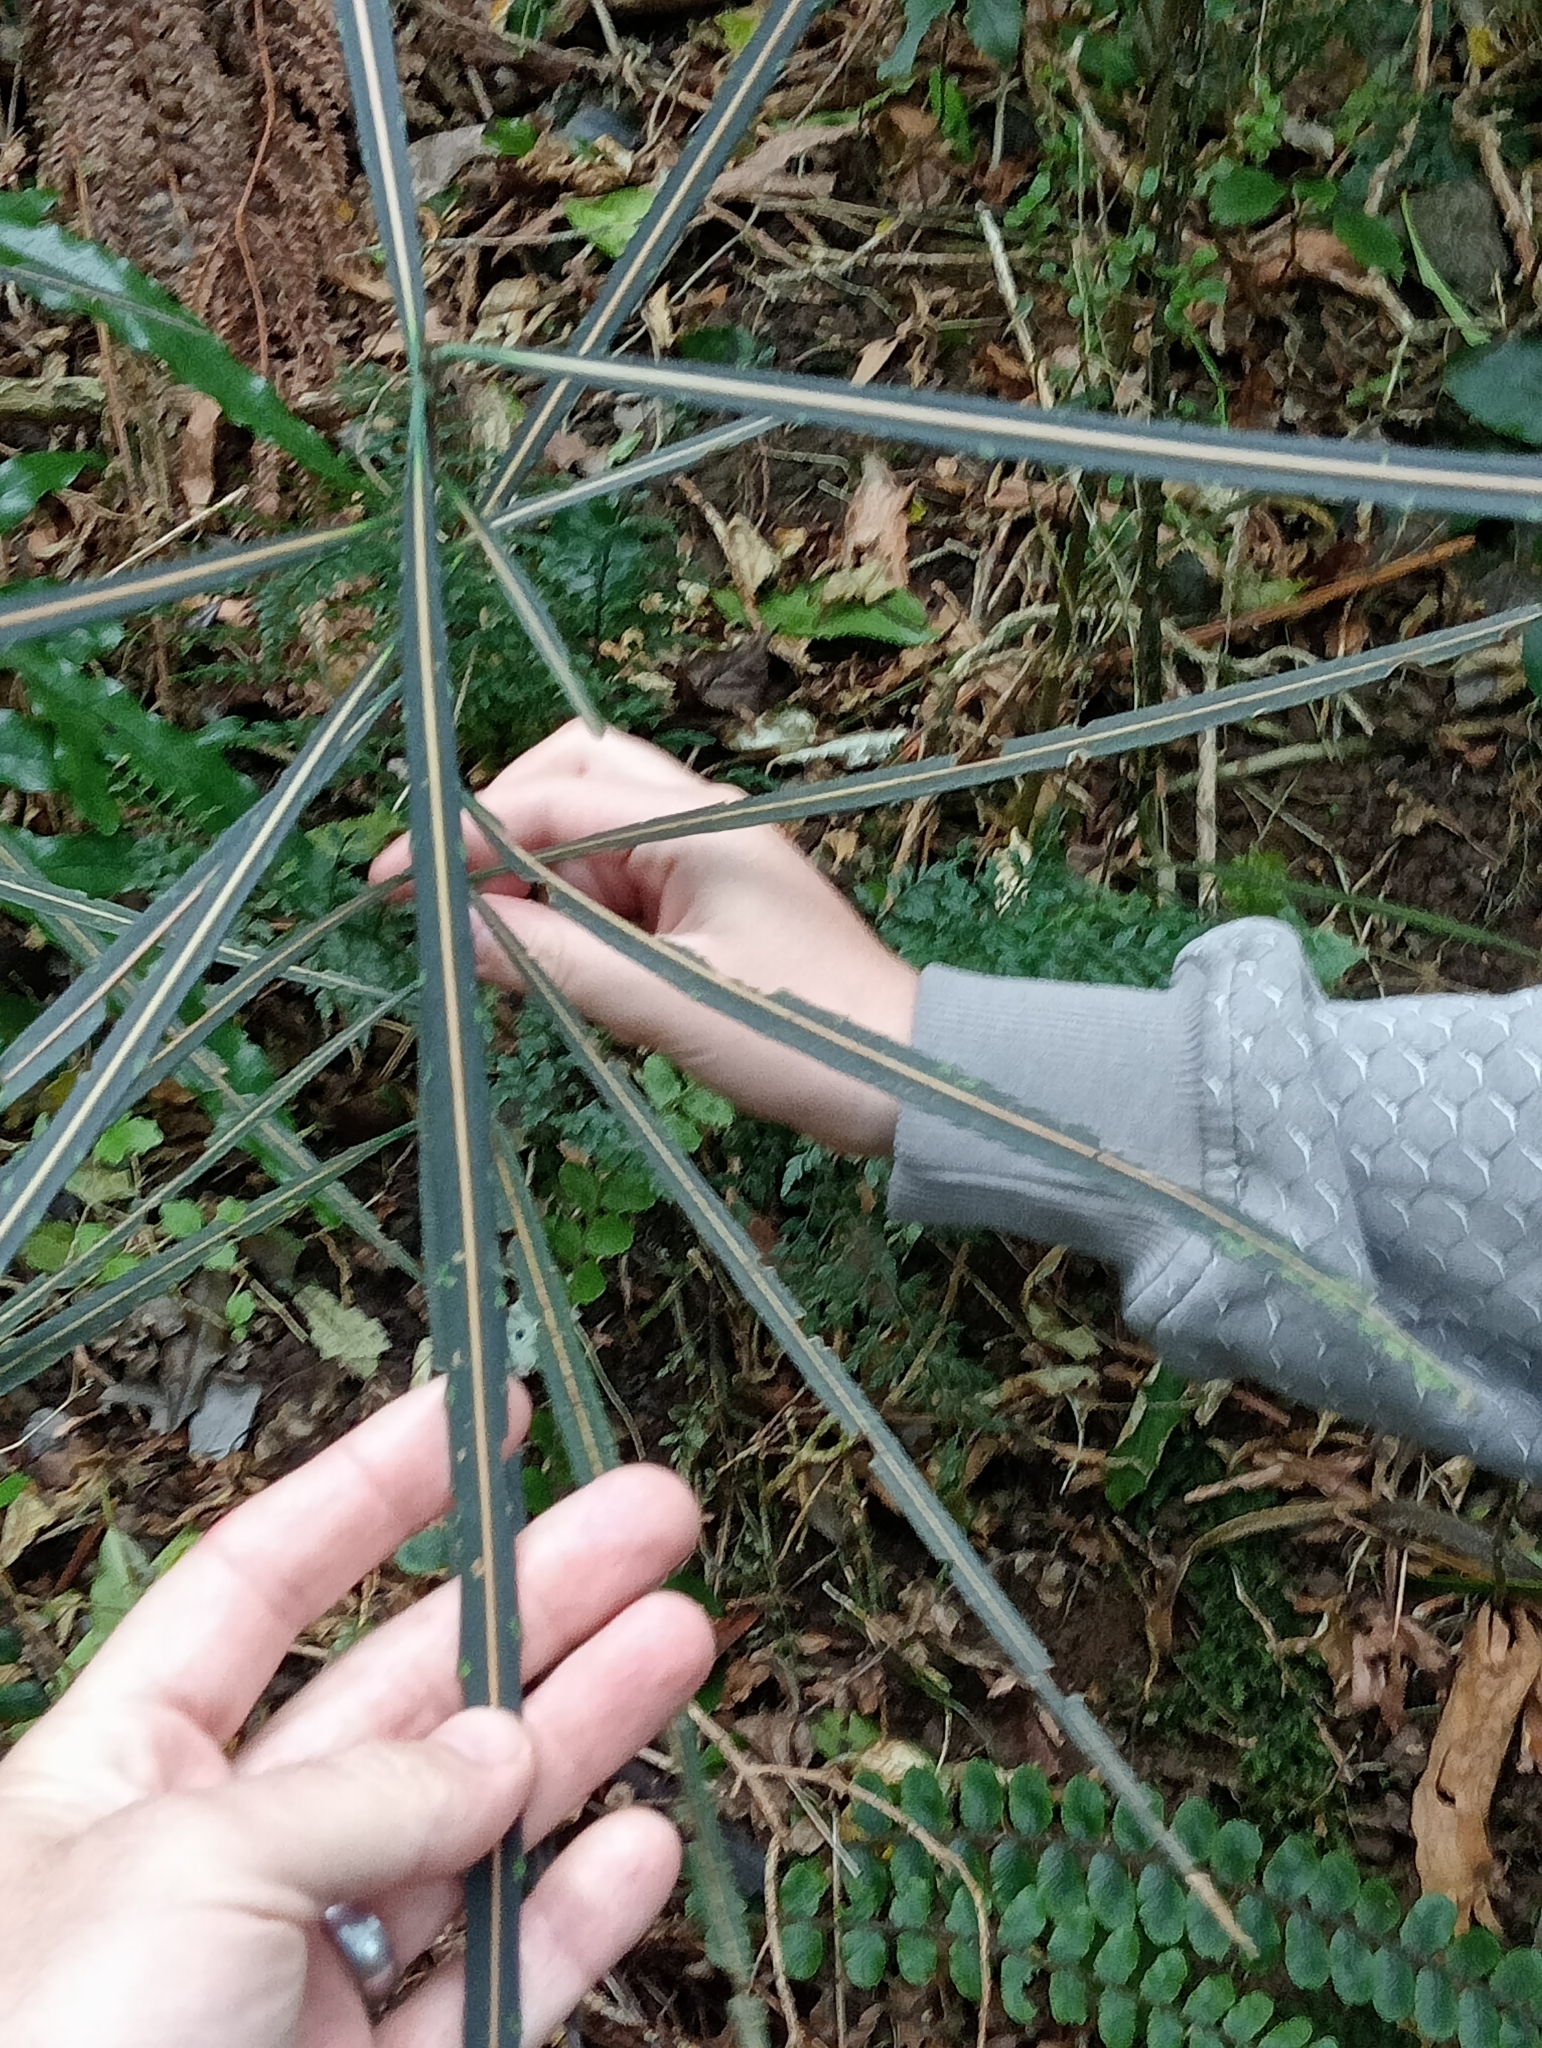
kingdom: Plantae
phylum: Tracheophyta
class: Magnoliopsida
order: Apiales
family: Araliaceae
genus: Pseudopanax
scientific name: Pseudopanax crassifolius
